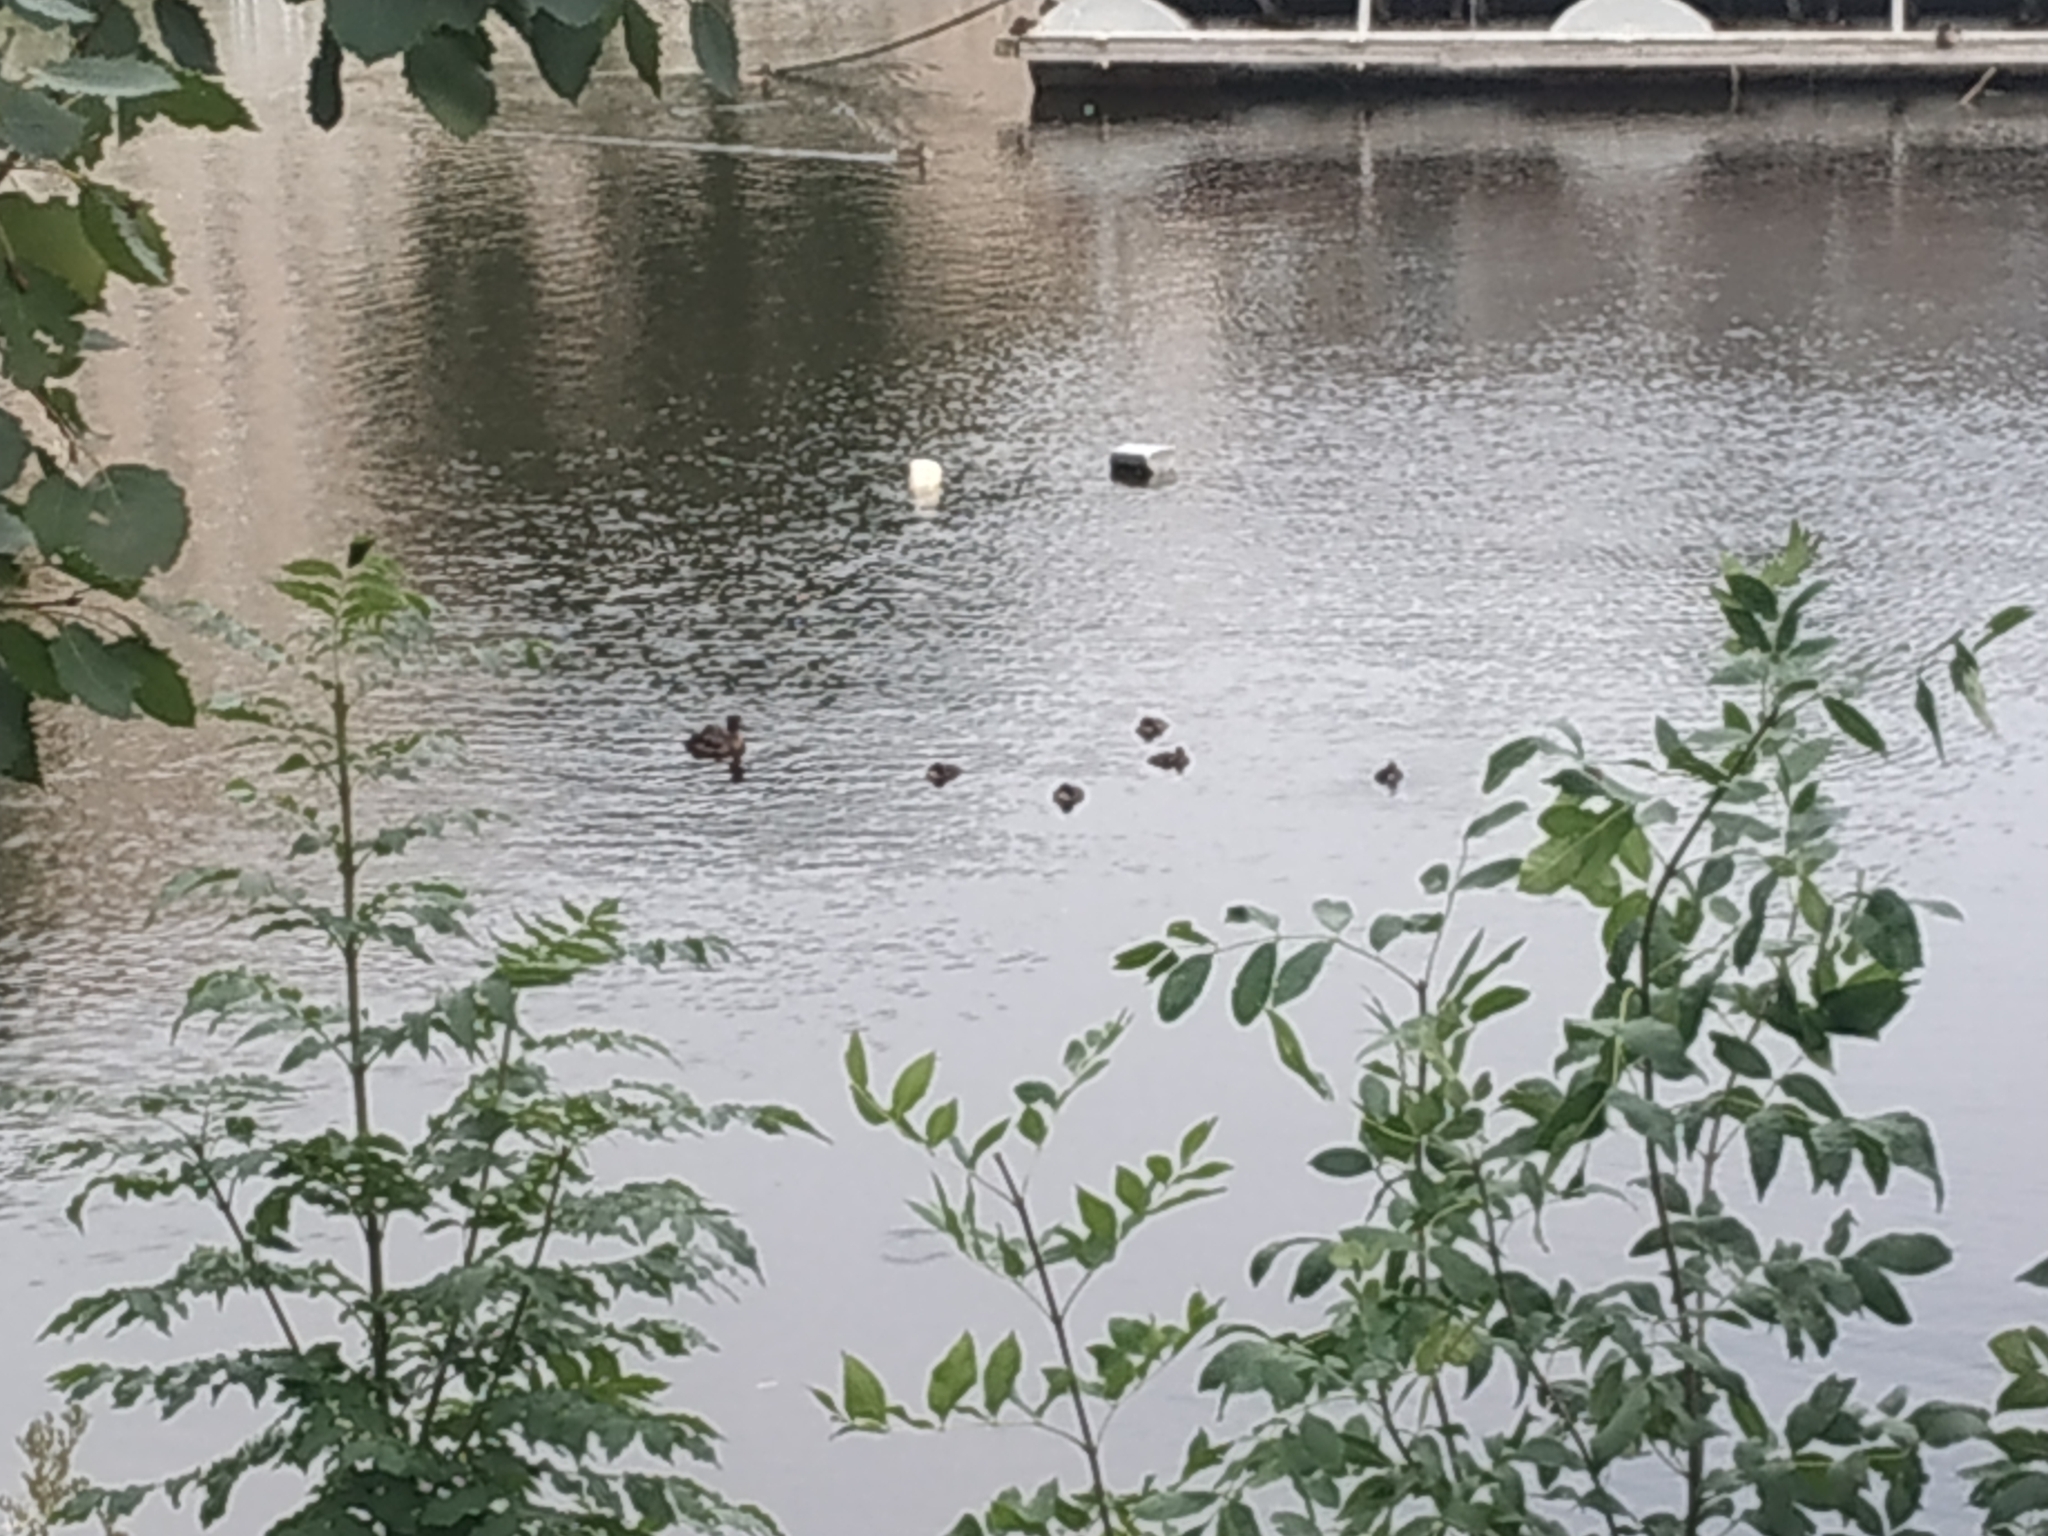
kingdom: Animalia
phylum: Chordata
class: Aves
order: Anseriformes
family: Anatidae
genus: Aythya
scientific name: Aythya fuligula
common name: Tufted duck
